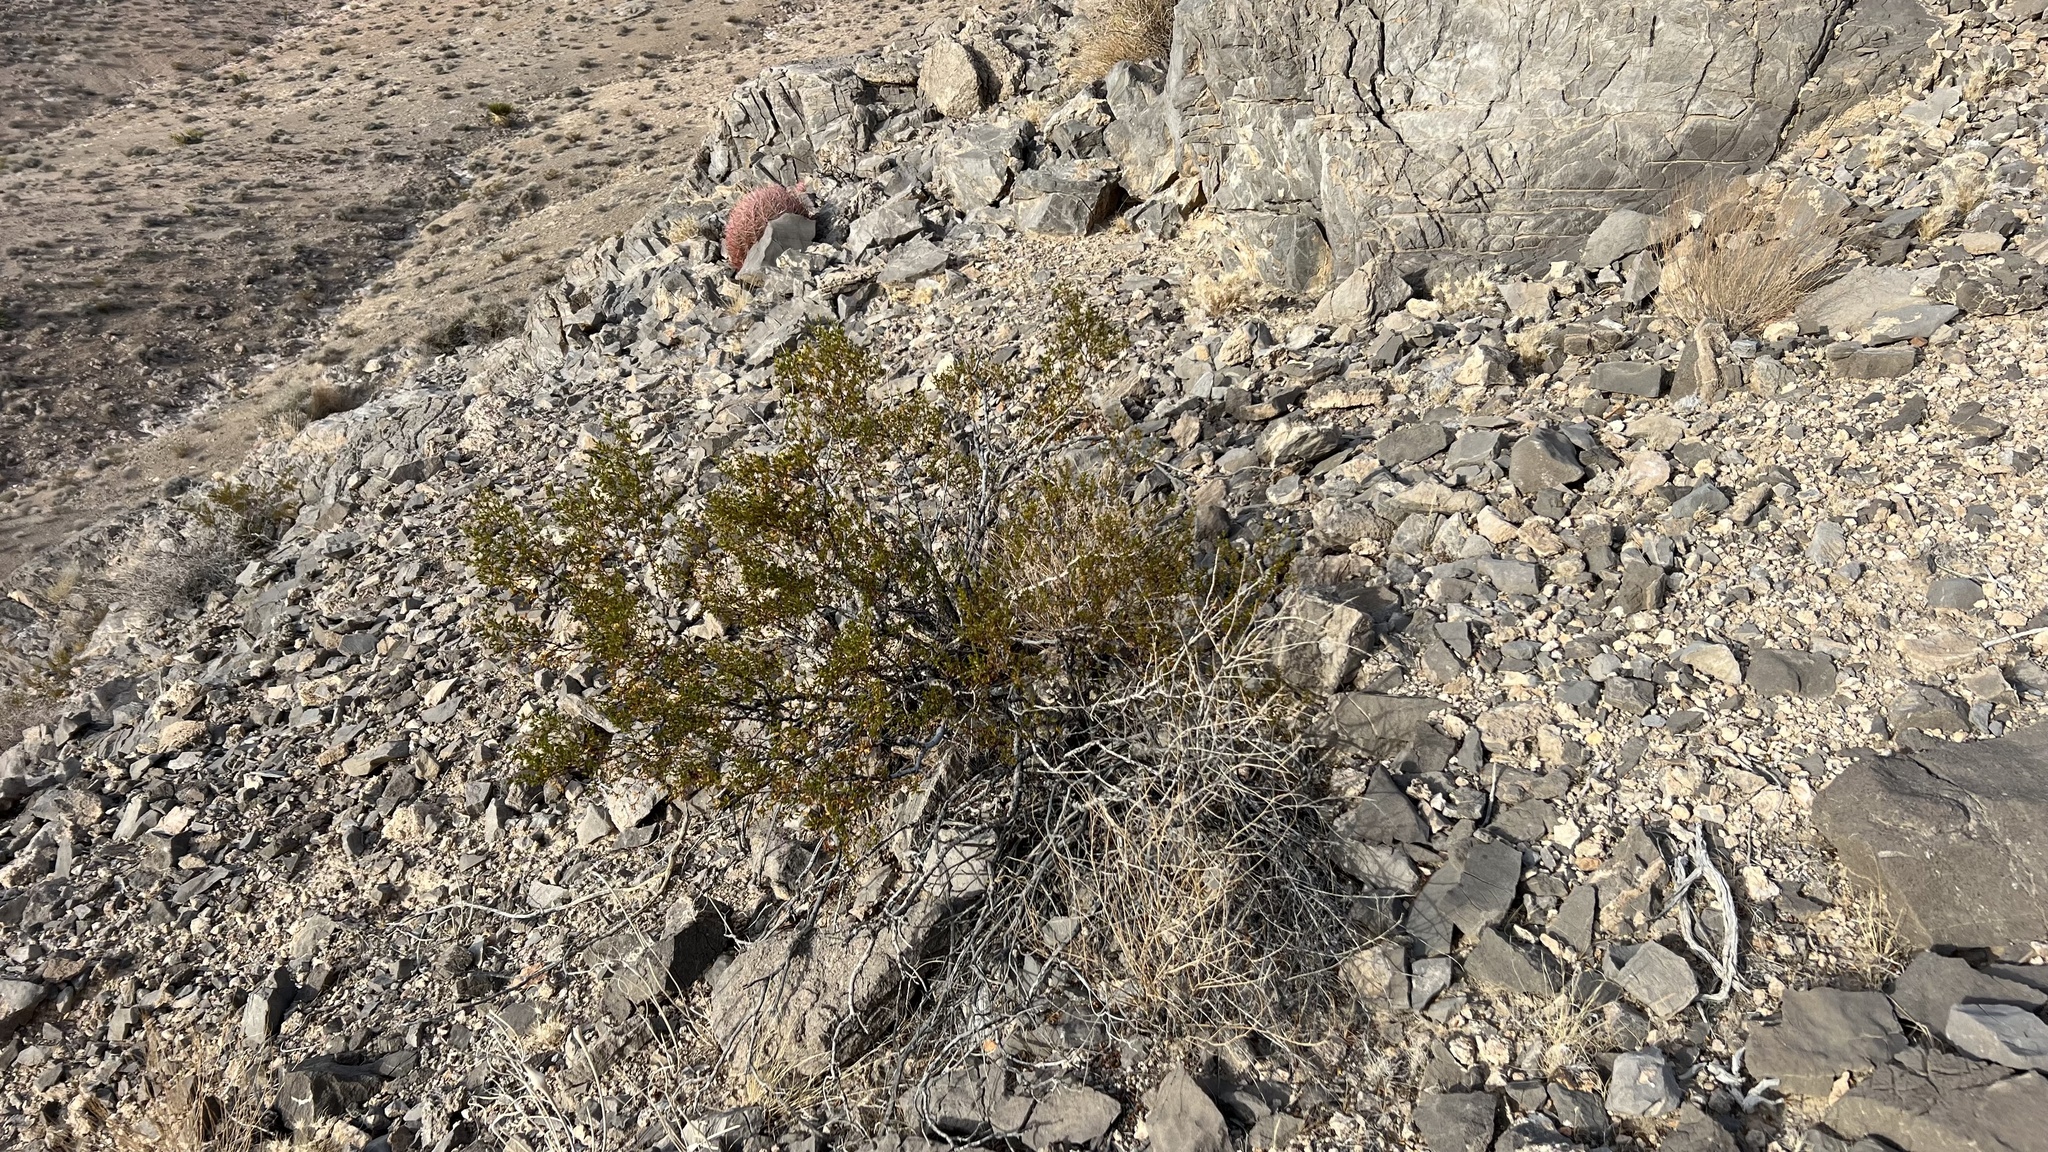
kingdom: Plantae
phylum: Tracheophyta
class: Magnoliopsida
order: Zygophyllales
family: Zygophyllaceae
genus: Larrea
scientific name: Larrea tridentata
